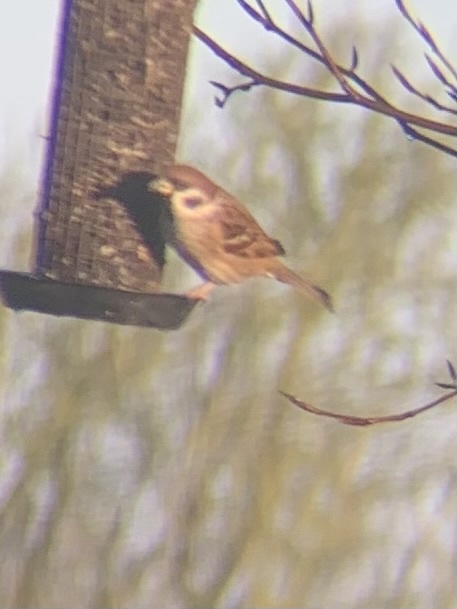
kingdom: Animalia
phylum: Chordata
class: Aves
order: Passeriformes
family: Passeridae
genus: Passer
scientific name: Passer montanus
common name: Eurasian tree sparrow
